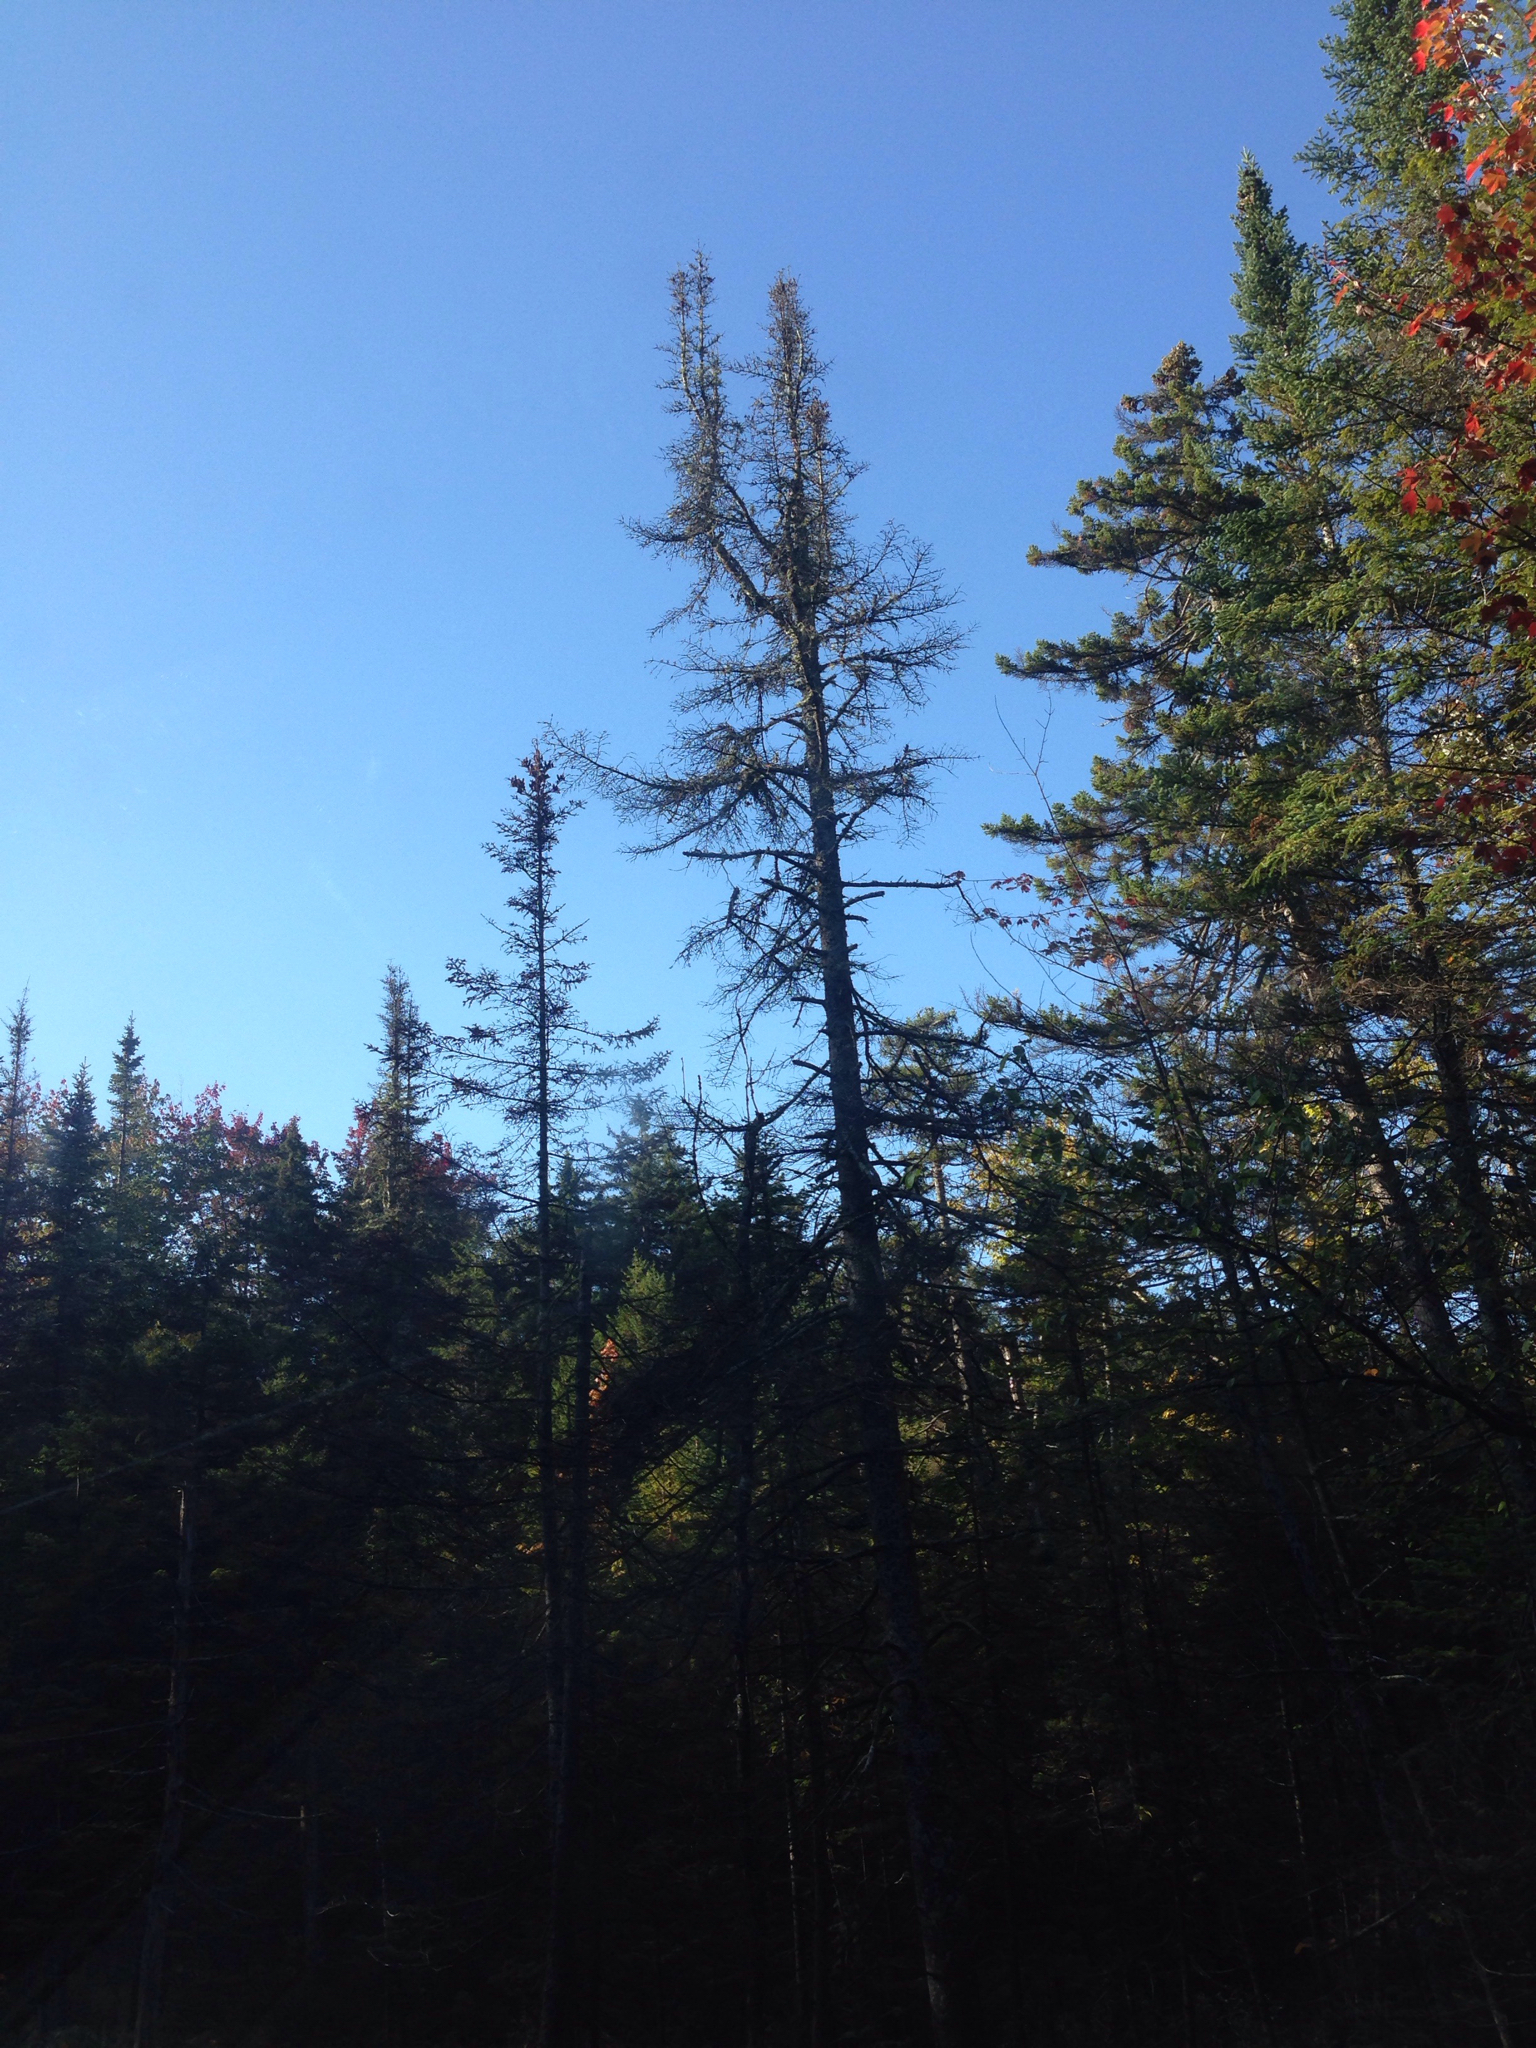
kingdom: Plantae
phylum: Tracheophyta
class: Pinopsida
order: Pinales
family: Pinaceae
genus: Abies
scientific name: Abies balsamea
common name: Balsam fir
